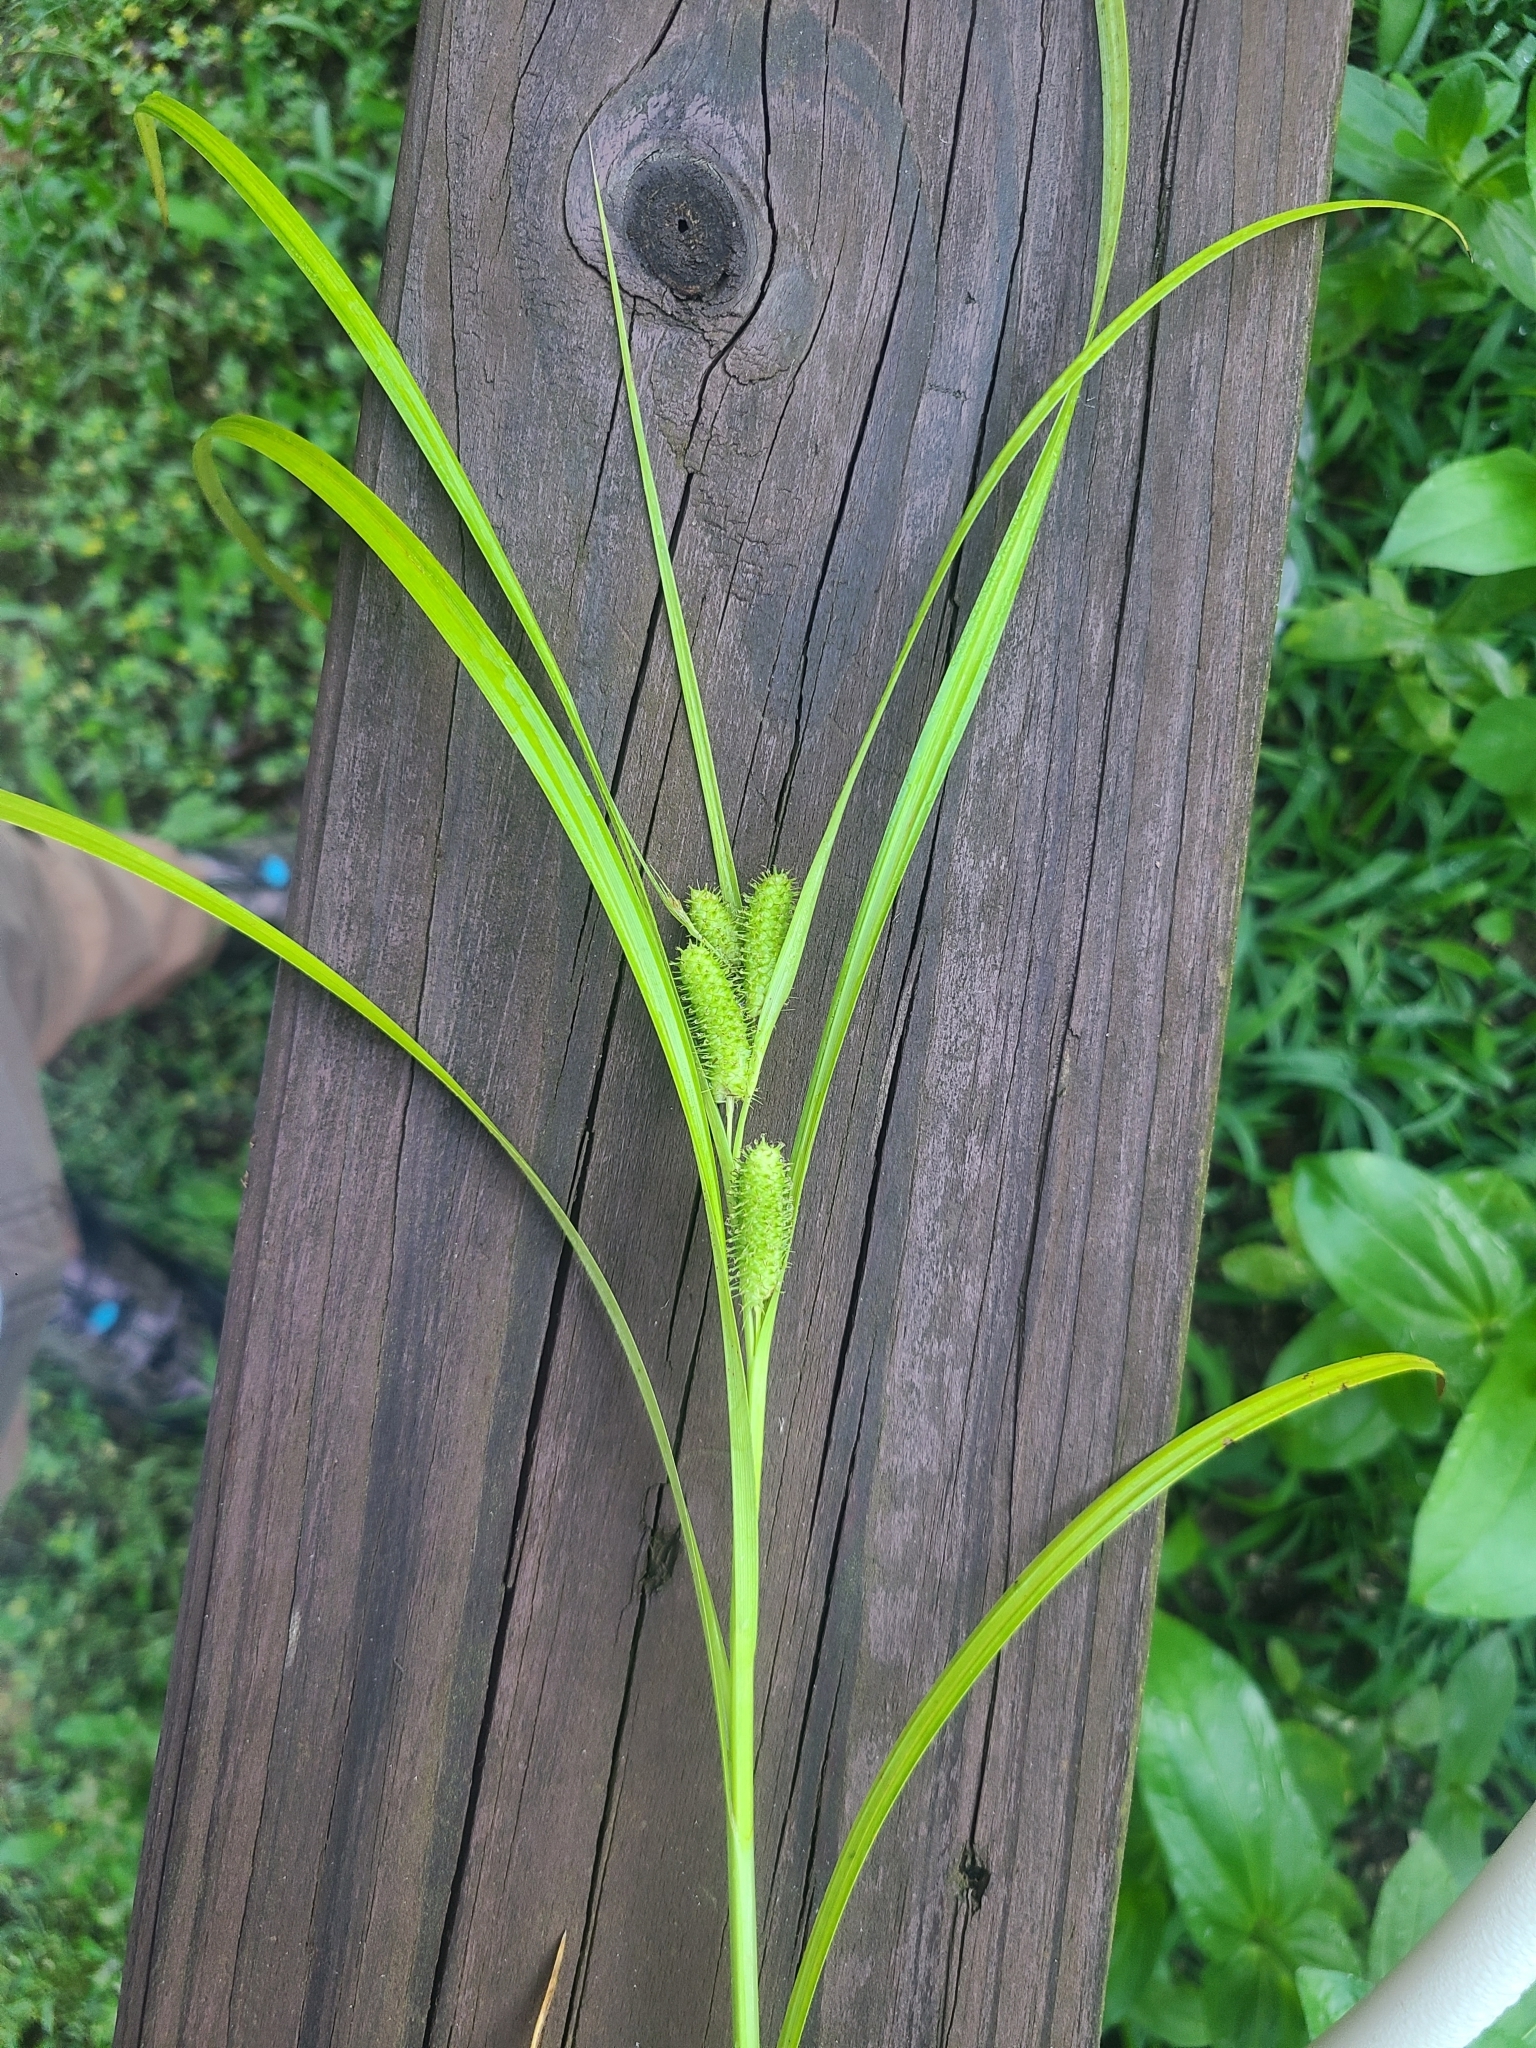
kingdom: Plantae
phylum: Tracheophyta
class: Liliopsida
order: Poales
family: Cyperaceae
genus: Carex
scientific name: Carex aureolensis
